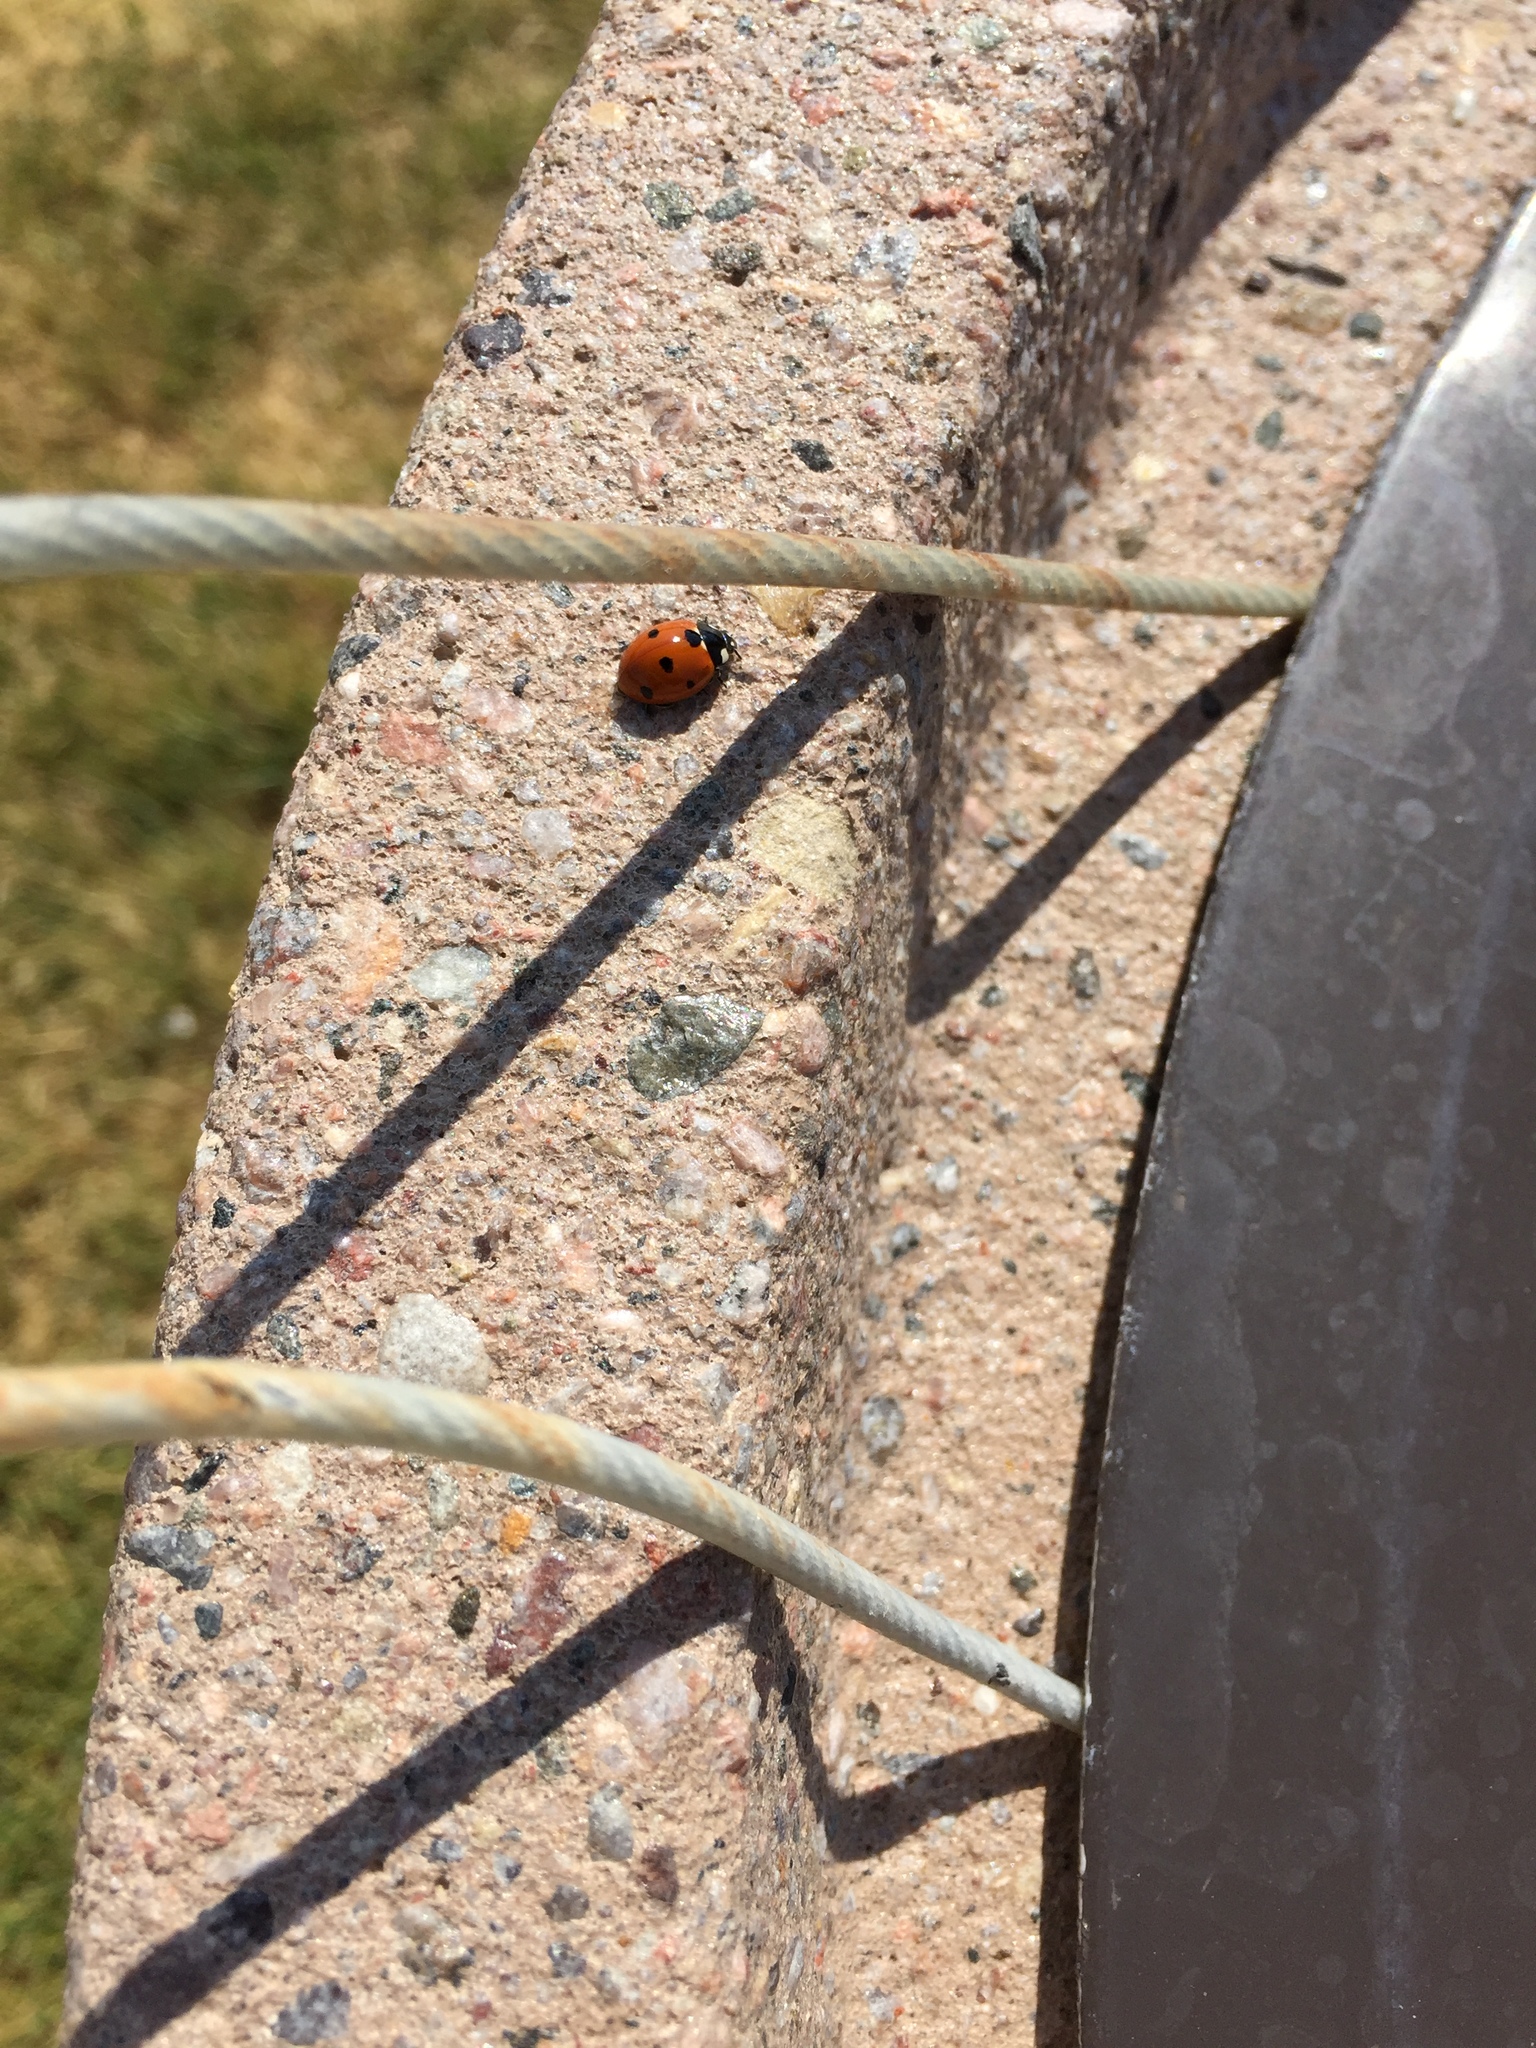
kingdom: Animalia
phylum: Arthropoda
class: Insecta
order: Coleoptera
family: Coccinellidae
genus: Coccinella
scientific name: Coccinella septempunctata
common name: Sevenspotted lady beetle
